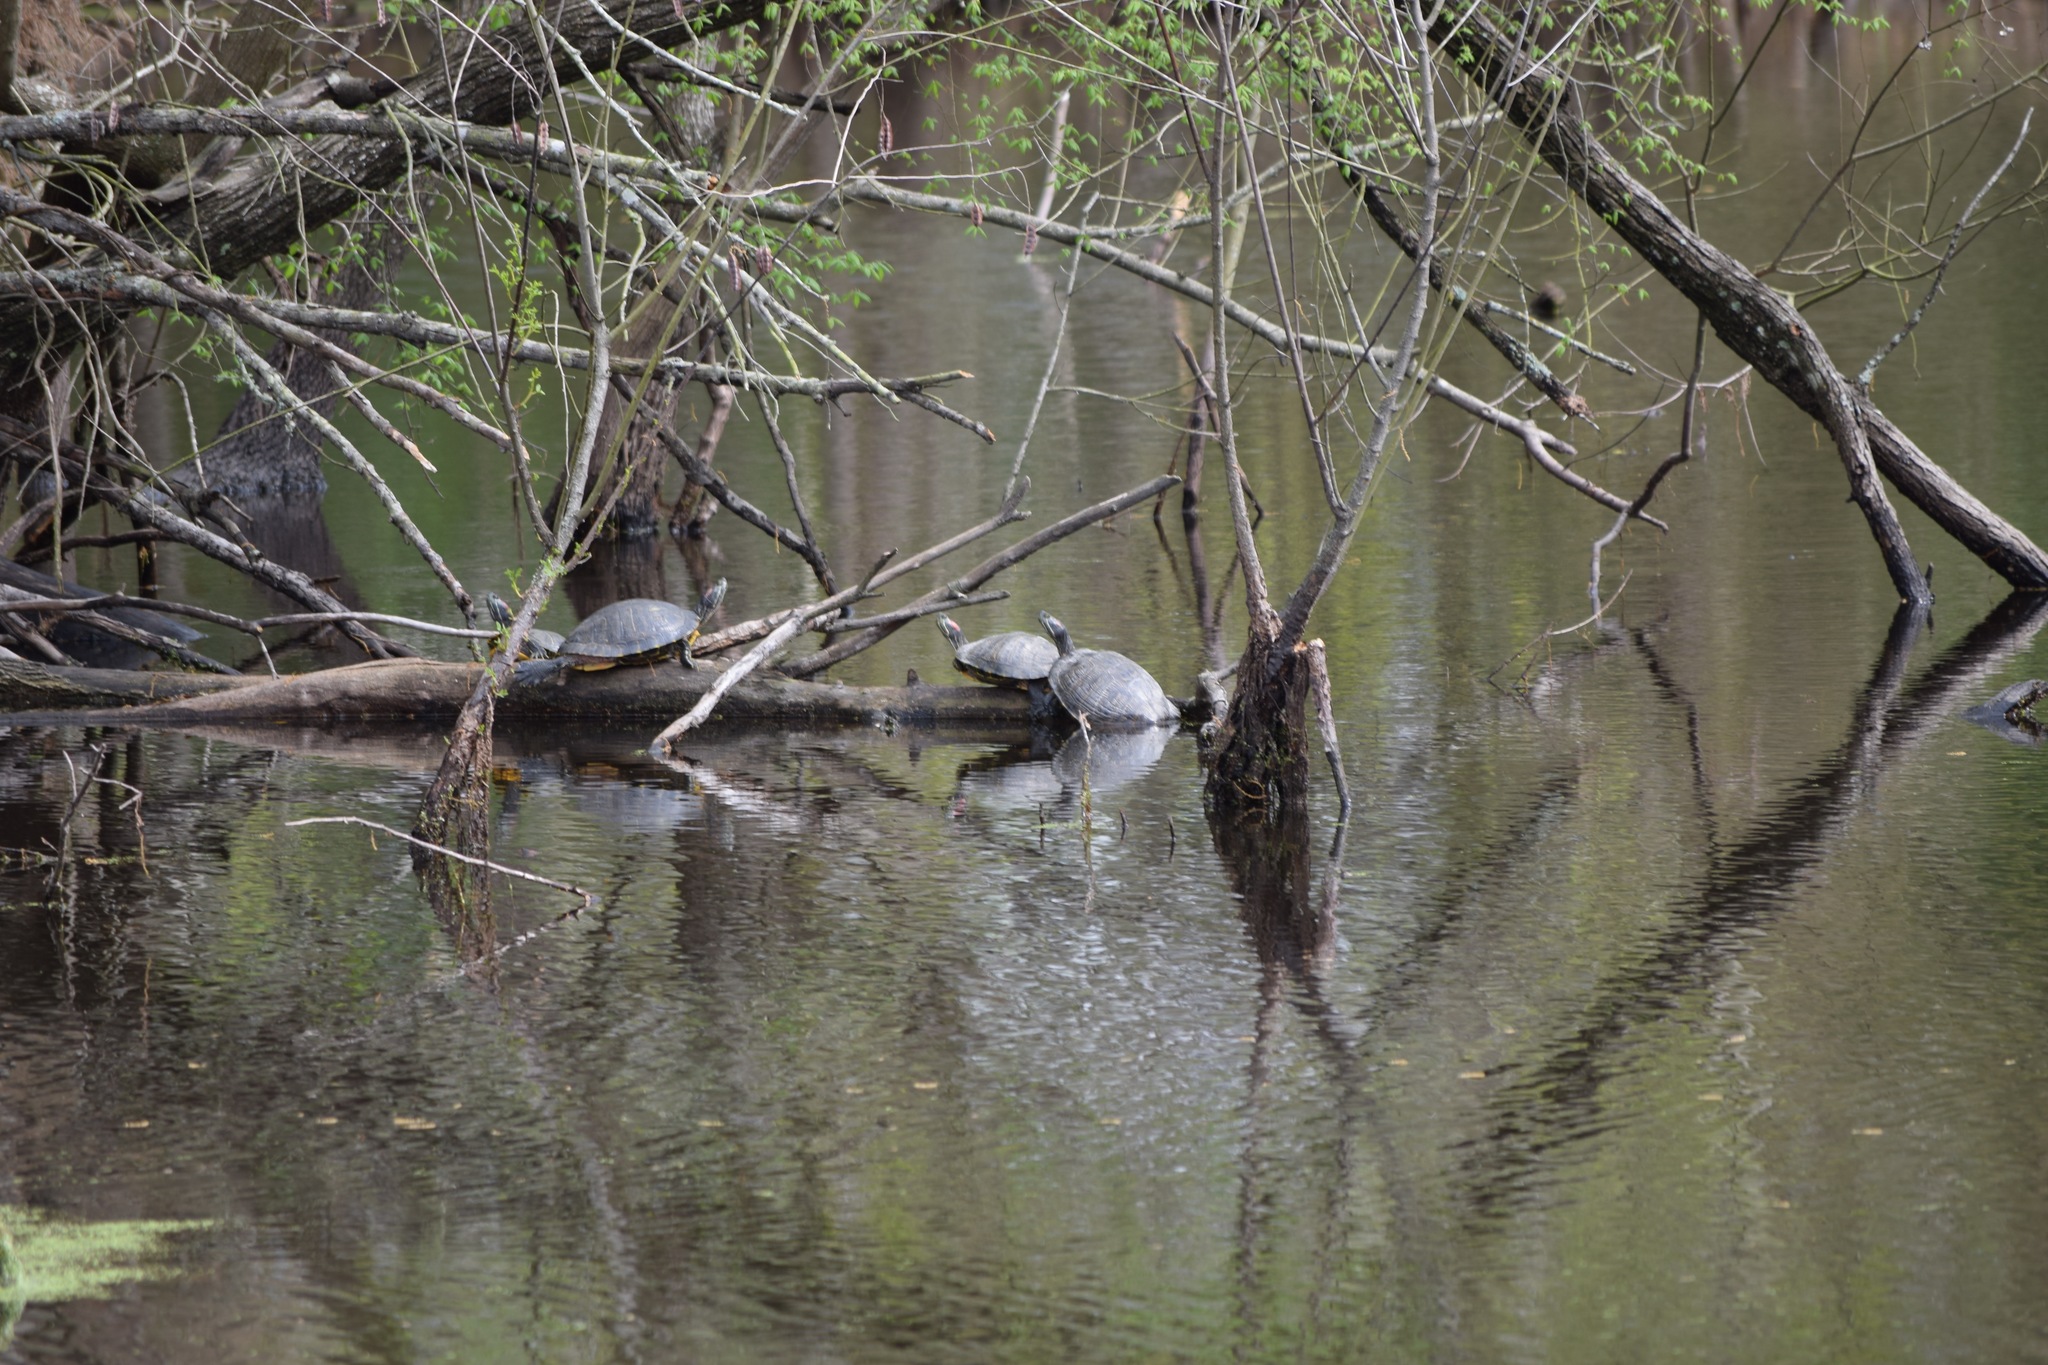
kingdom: Animalia
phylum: Chordata
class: Testudines
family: Emydidae
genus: Trachemys
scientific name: Trachemys scripta
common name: Slider
